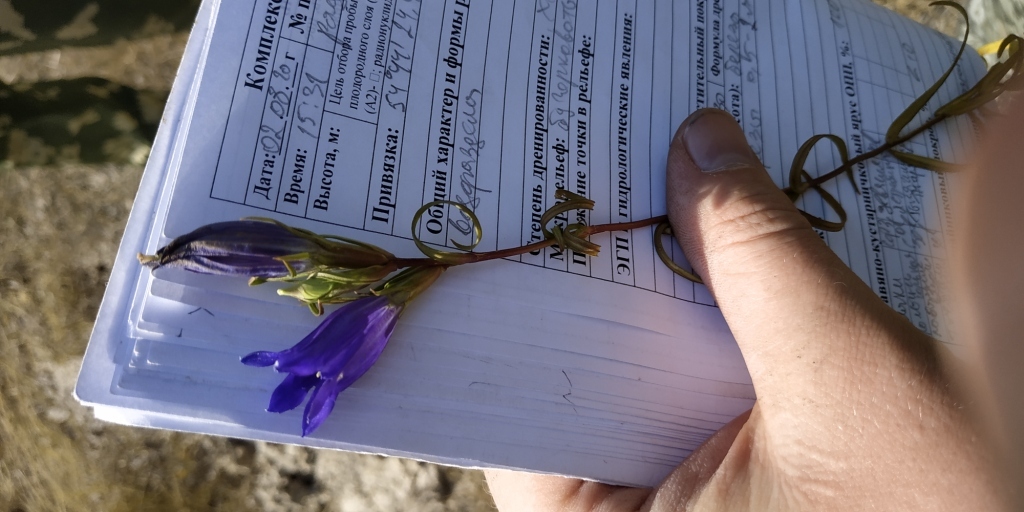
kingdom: Plantae
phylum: Tracheophyta
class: Magnoliopsida
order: Gentianales
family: Gentianaceae
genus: Gentiana
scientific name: Gentiana pneumonanthe
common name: Marsh gentian
